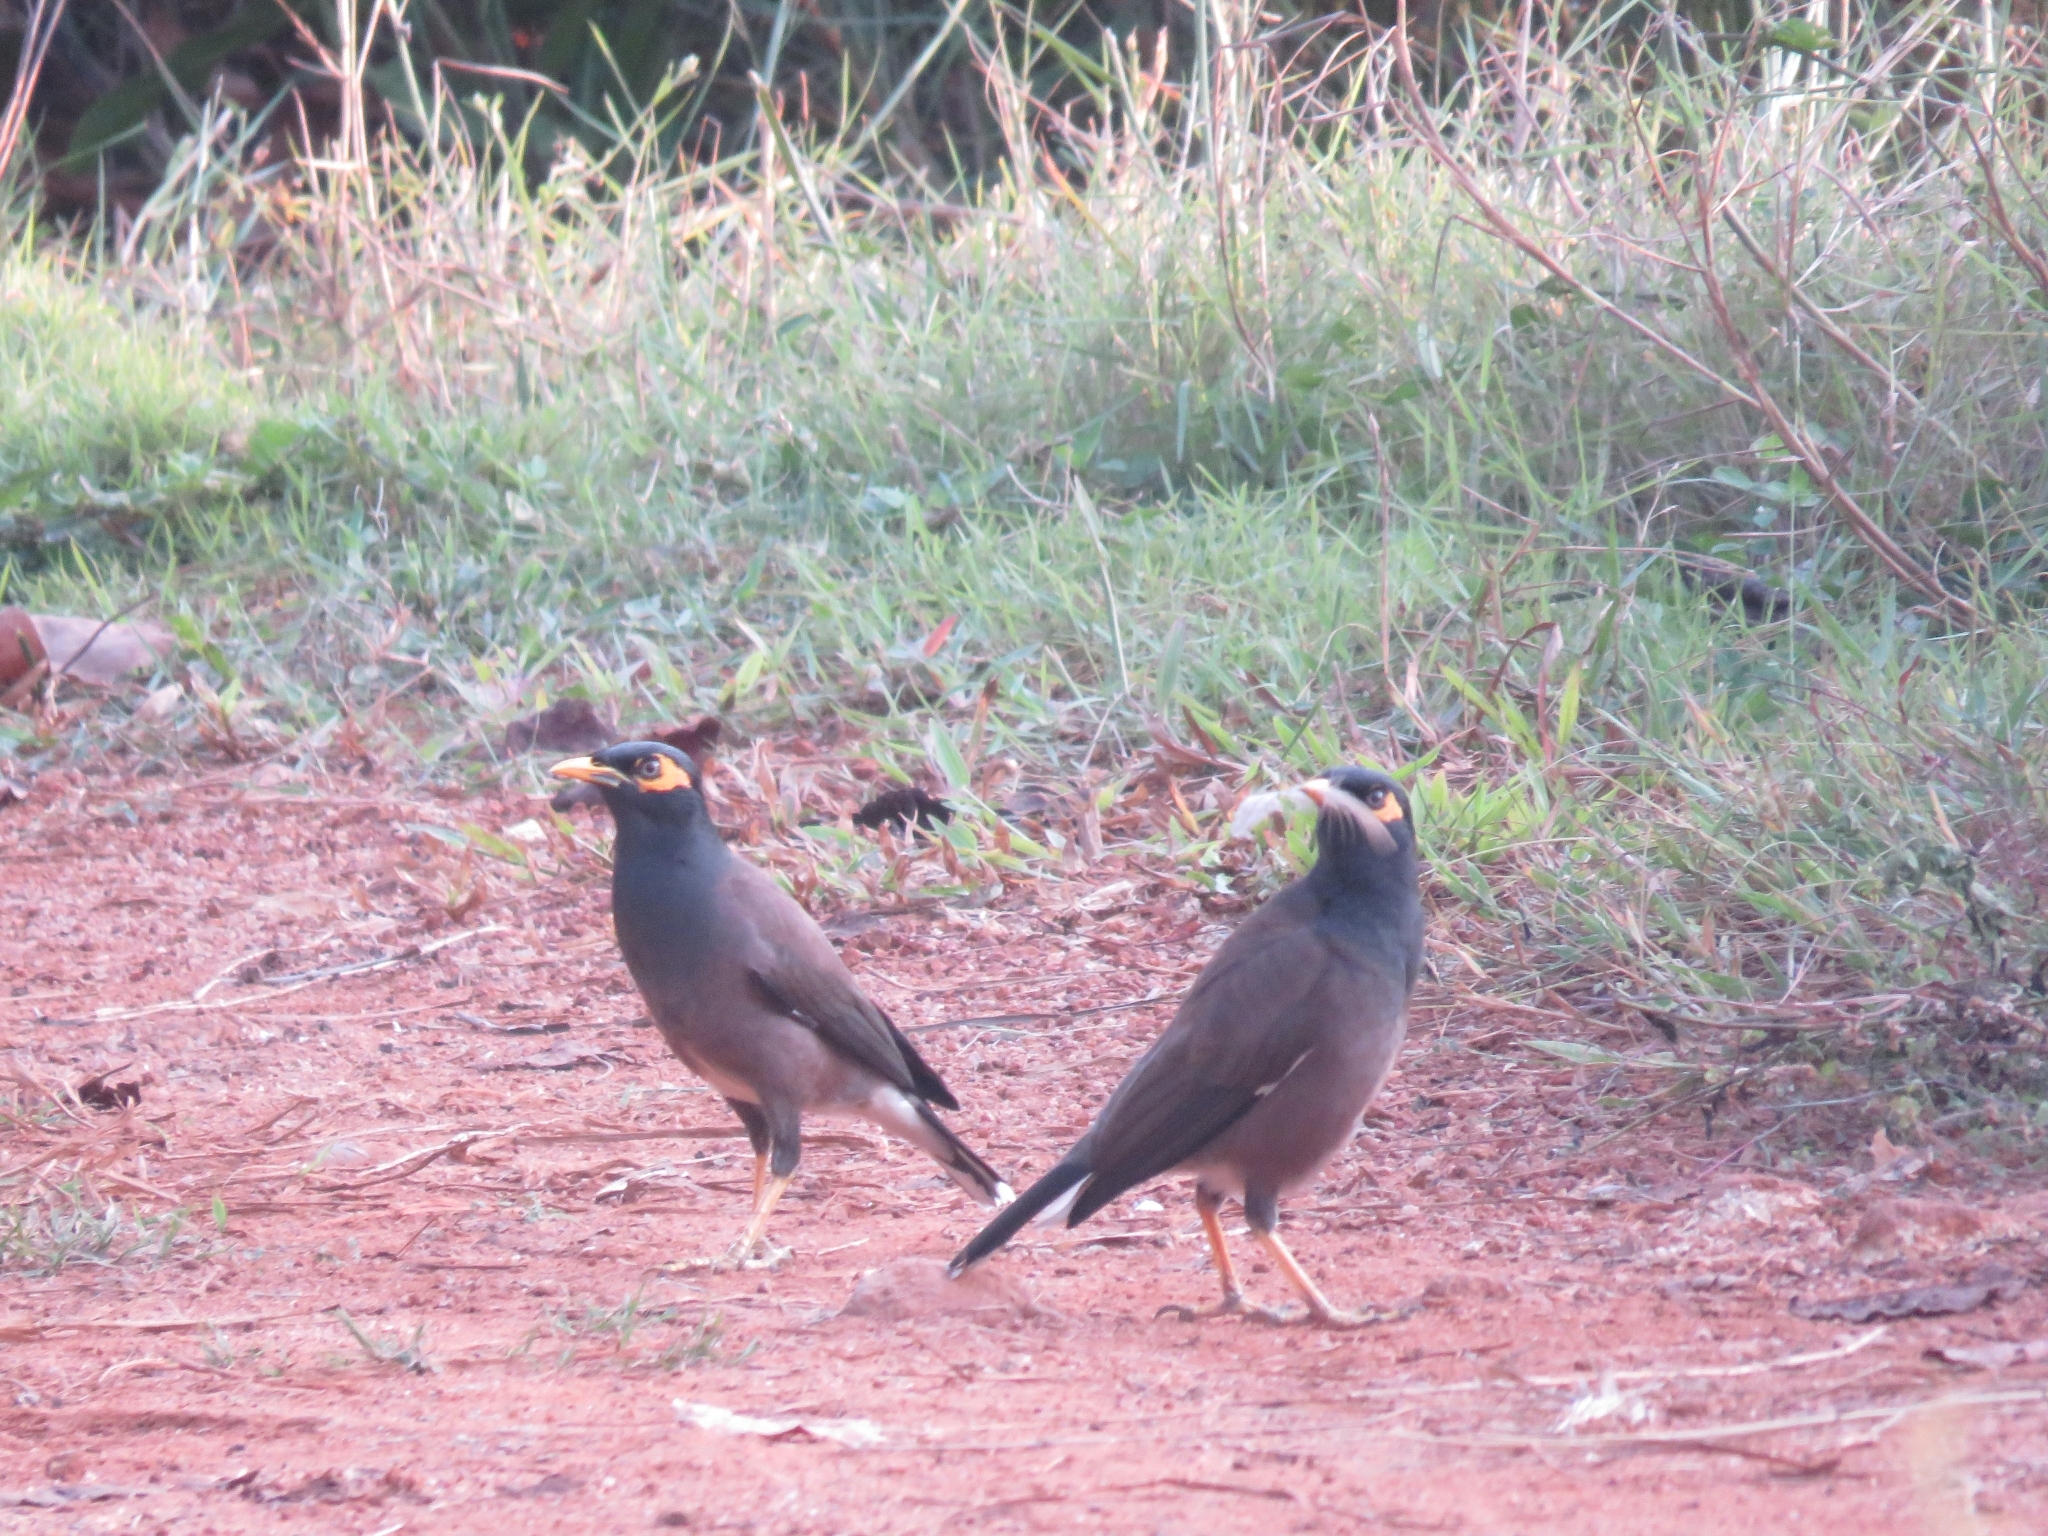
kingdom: Animalia
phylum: Chordata
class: Aves
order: Passeriformes
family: Sturnidae
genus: Acridotheres
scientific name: Acridotheres tristis
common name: Common myna
